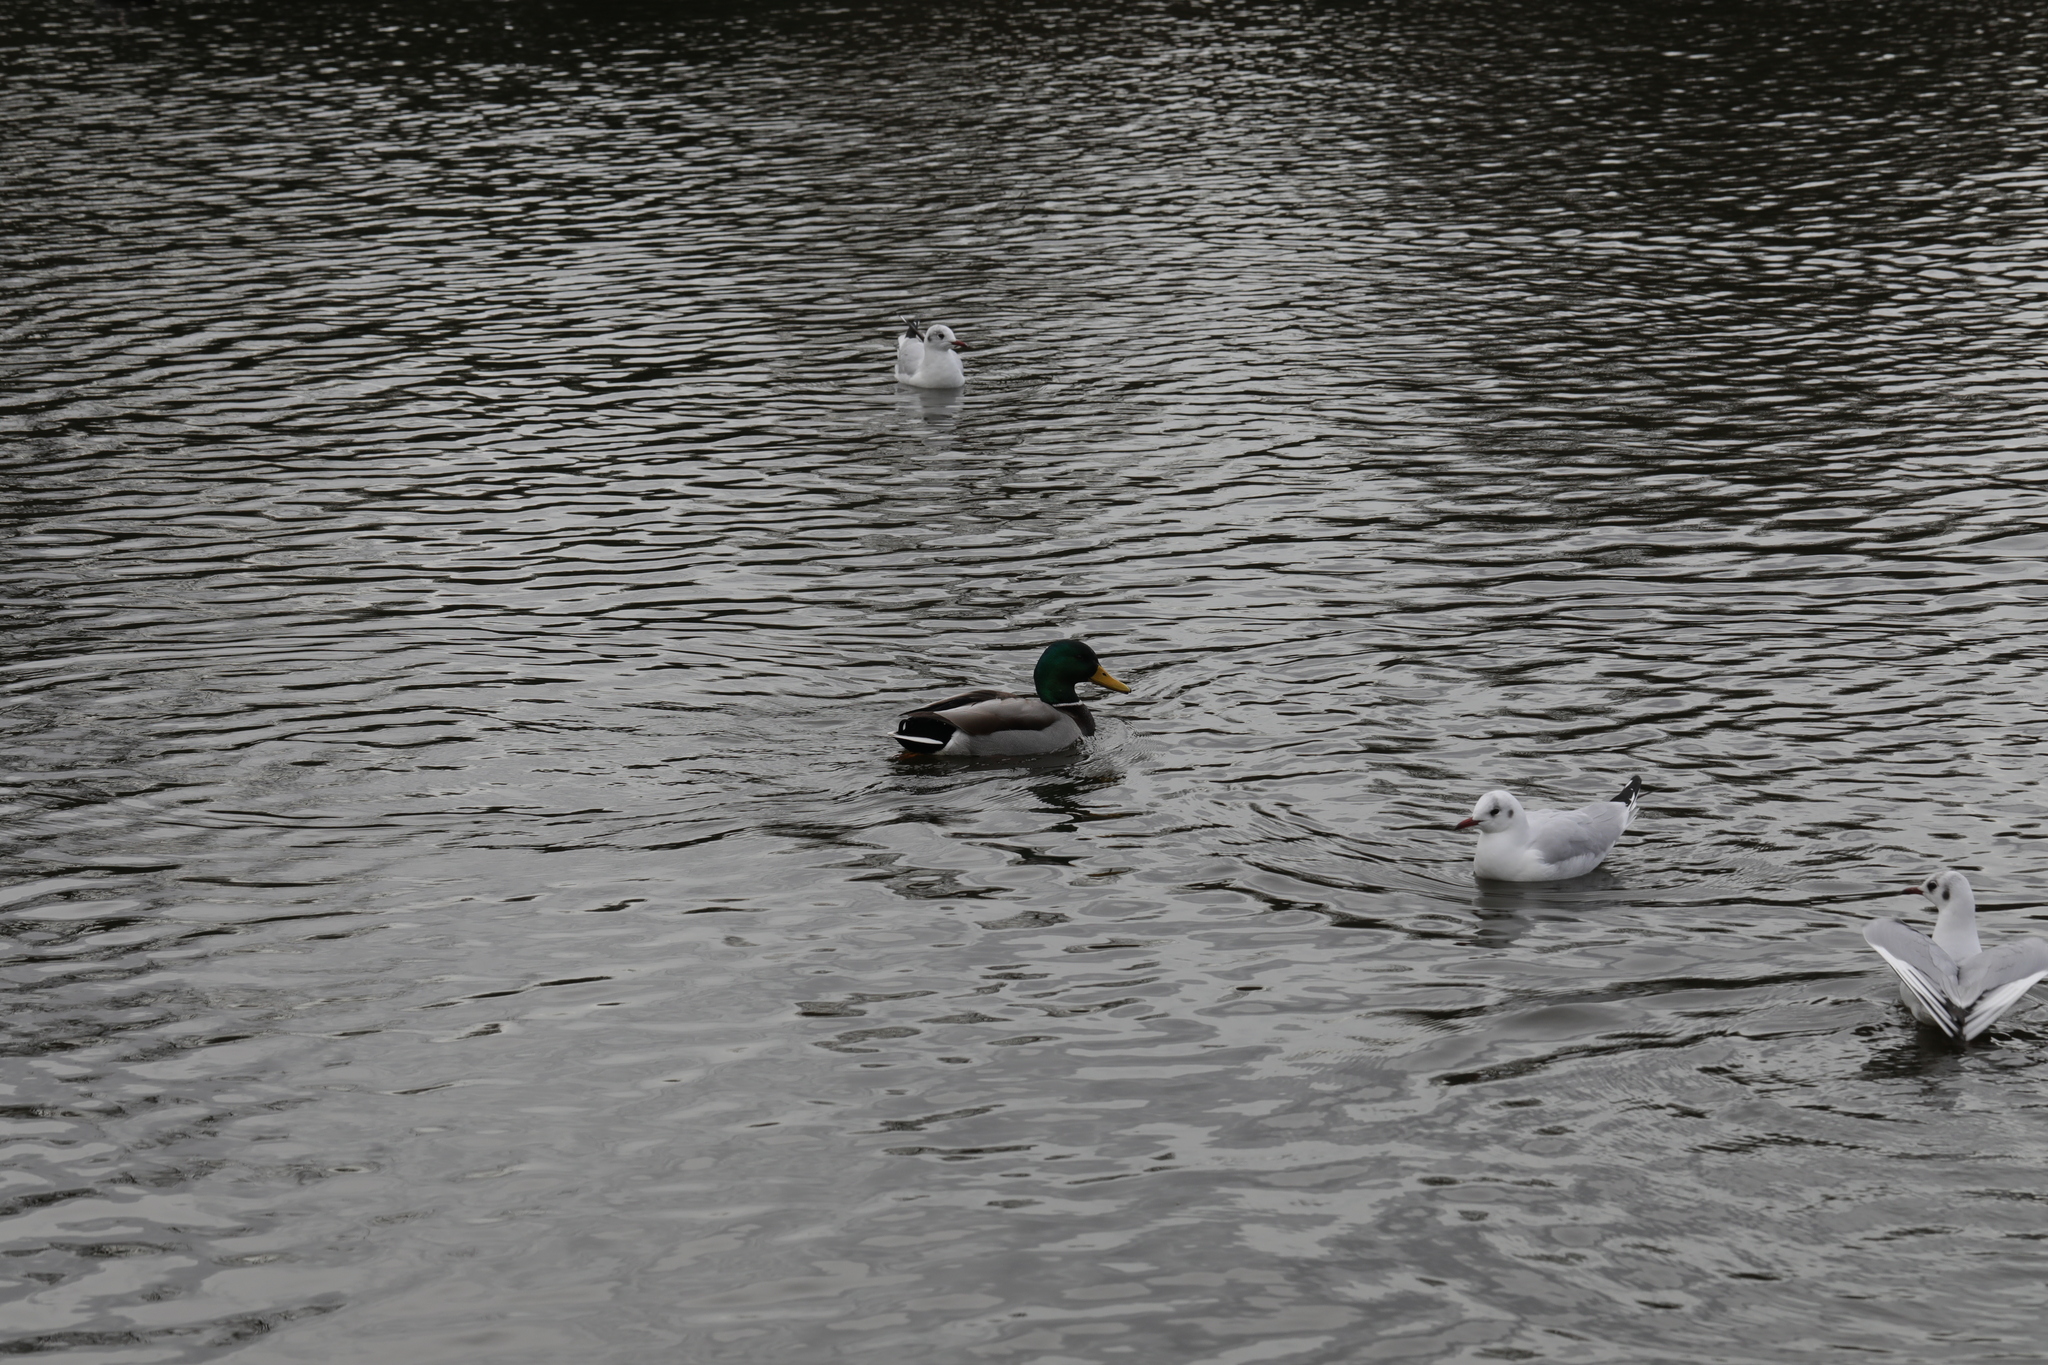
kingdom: Animalia
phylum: Chordata
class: Aves
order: Anseriformes
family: Anatidae
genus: Anas
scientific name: Anas platyrhynchos
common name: Mallard
